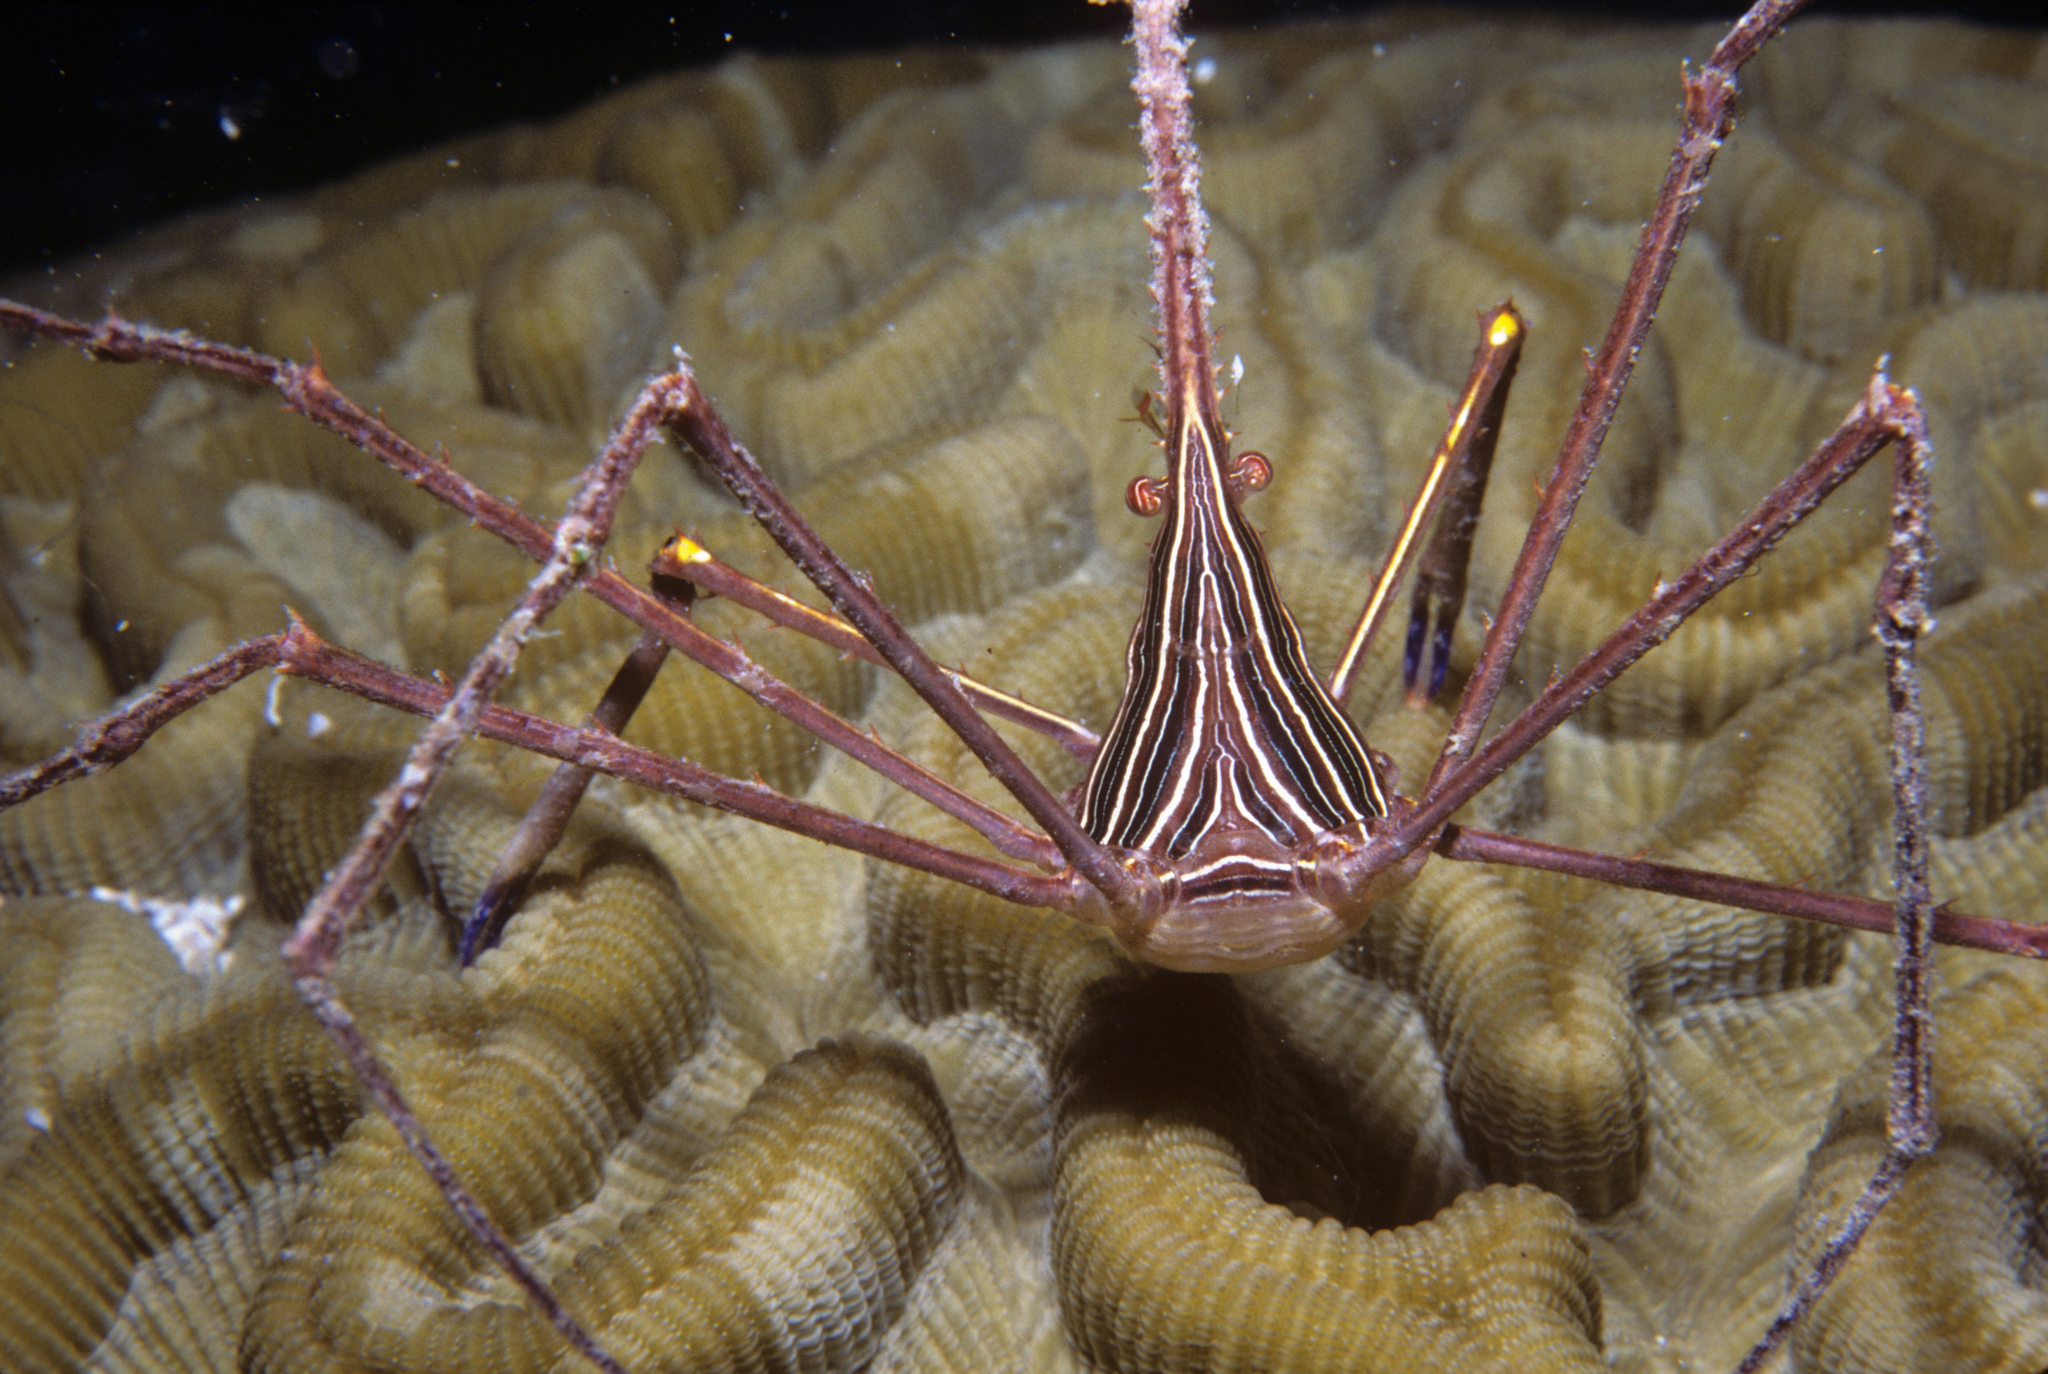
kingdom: Animalia
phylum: Arthropoda
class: Malacostraca
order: Decapoda
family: Inachoididae
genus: Stenorhynchus
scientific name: Stenorhynchus seticornis
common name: Arrow crab
